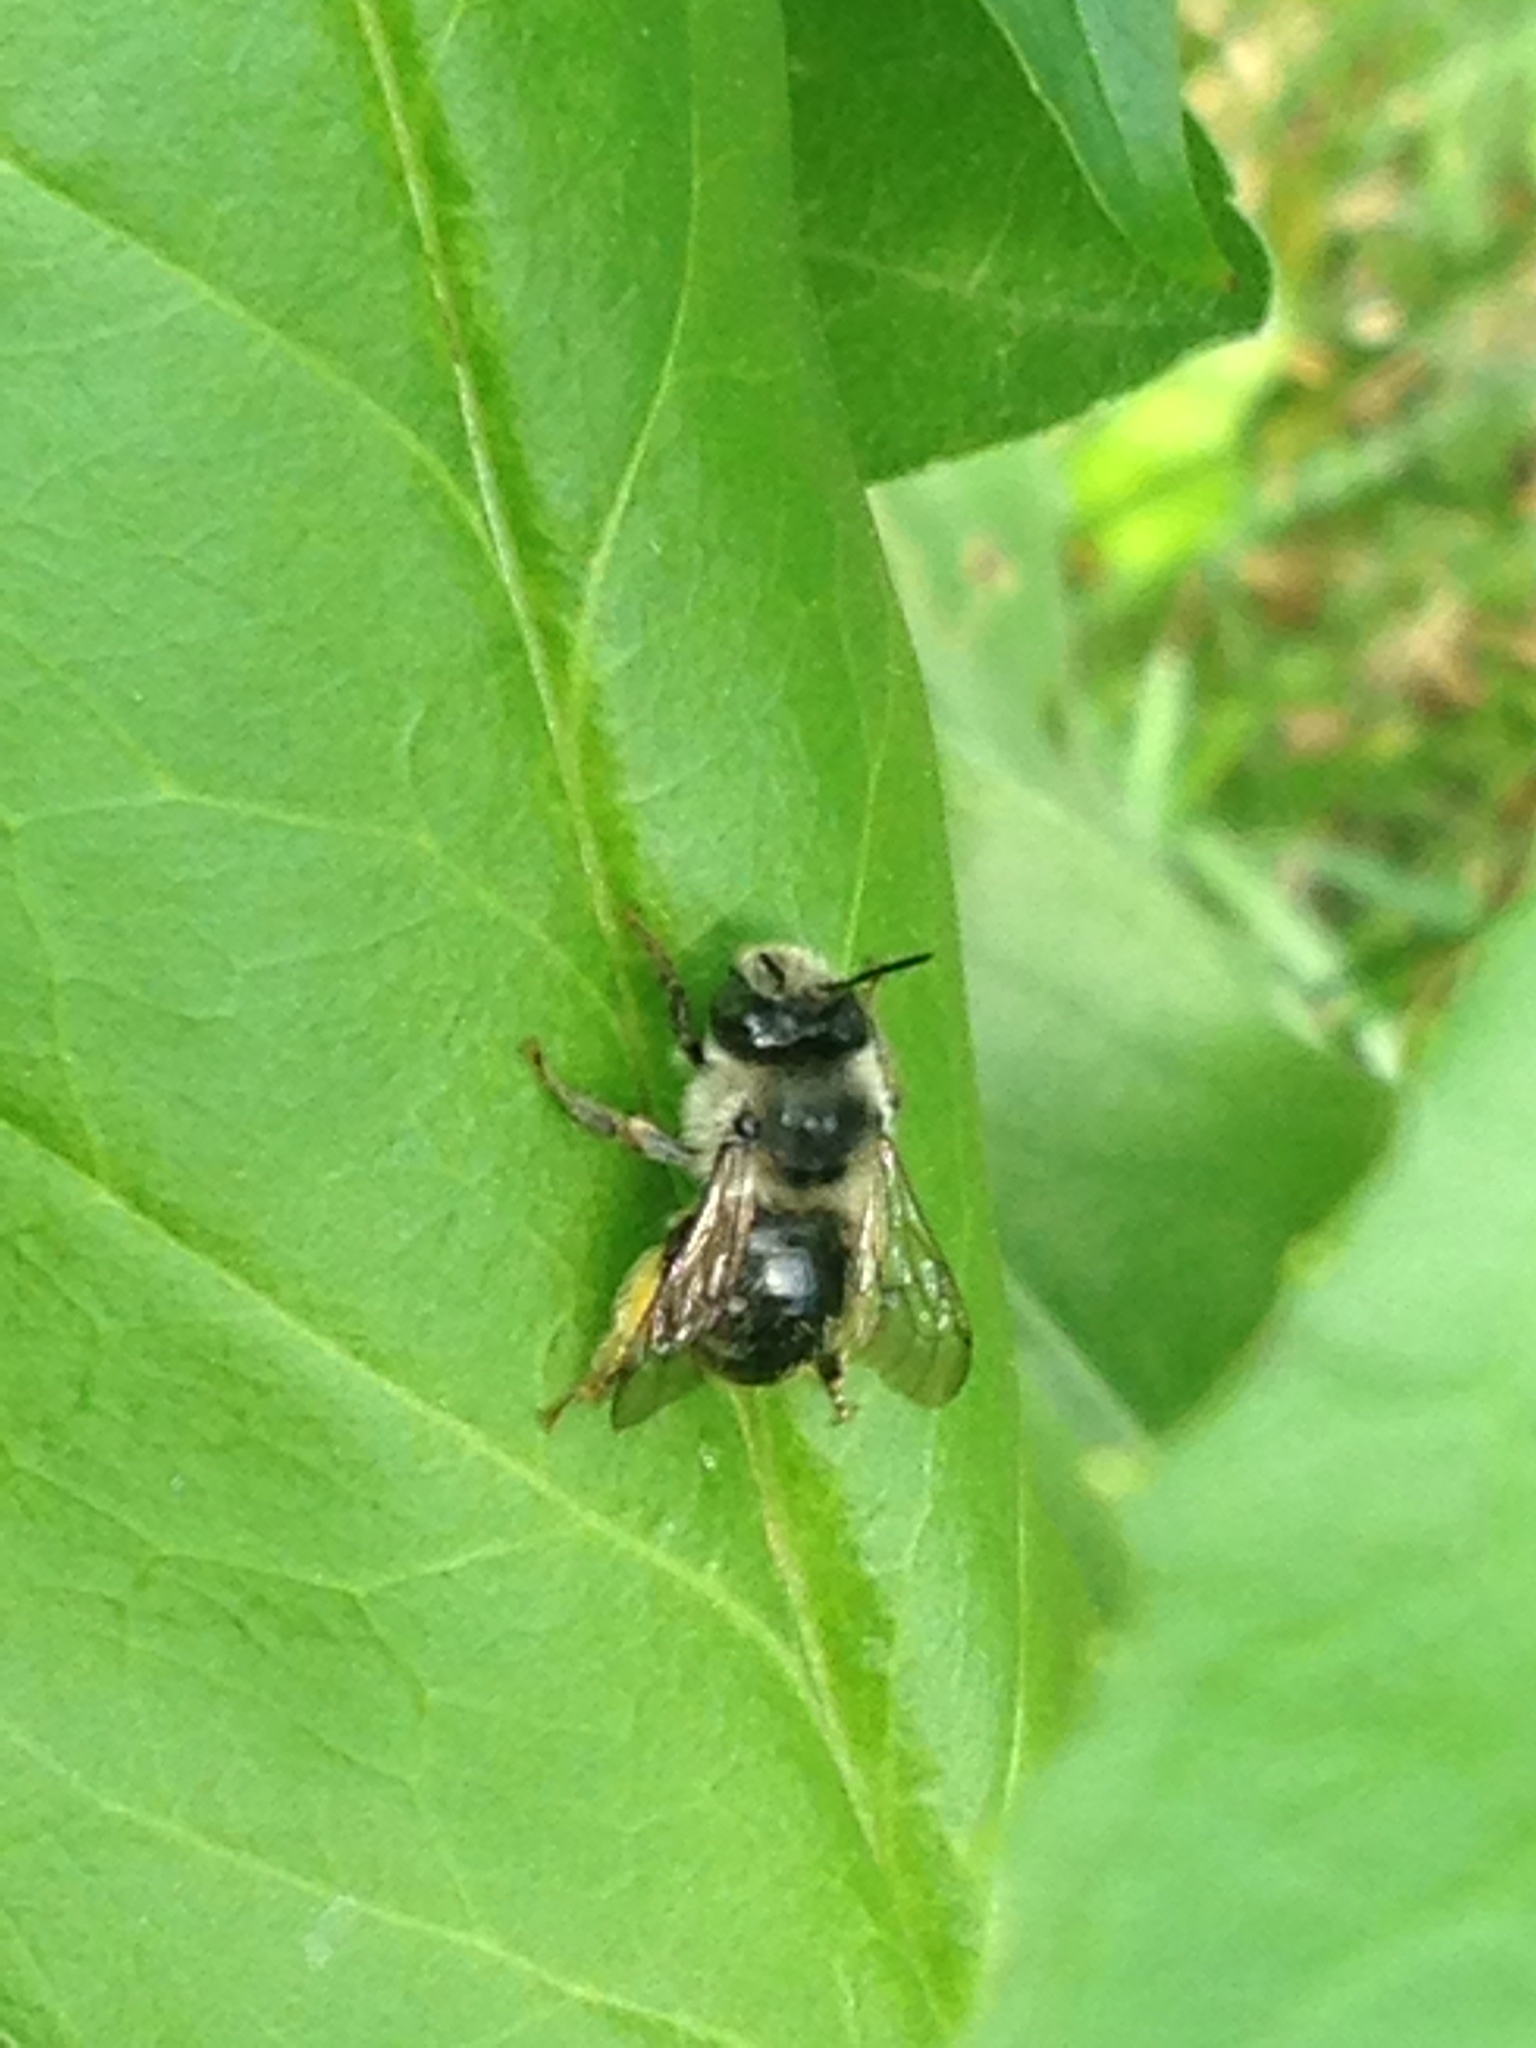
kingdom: Animalia
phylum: Arthropoda
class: Insecta
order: Hymenoptera
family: Apidae
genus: Anthophora
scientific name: Anthophora terminalis
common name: Orange-tipped wood-digger bee
